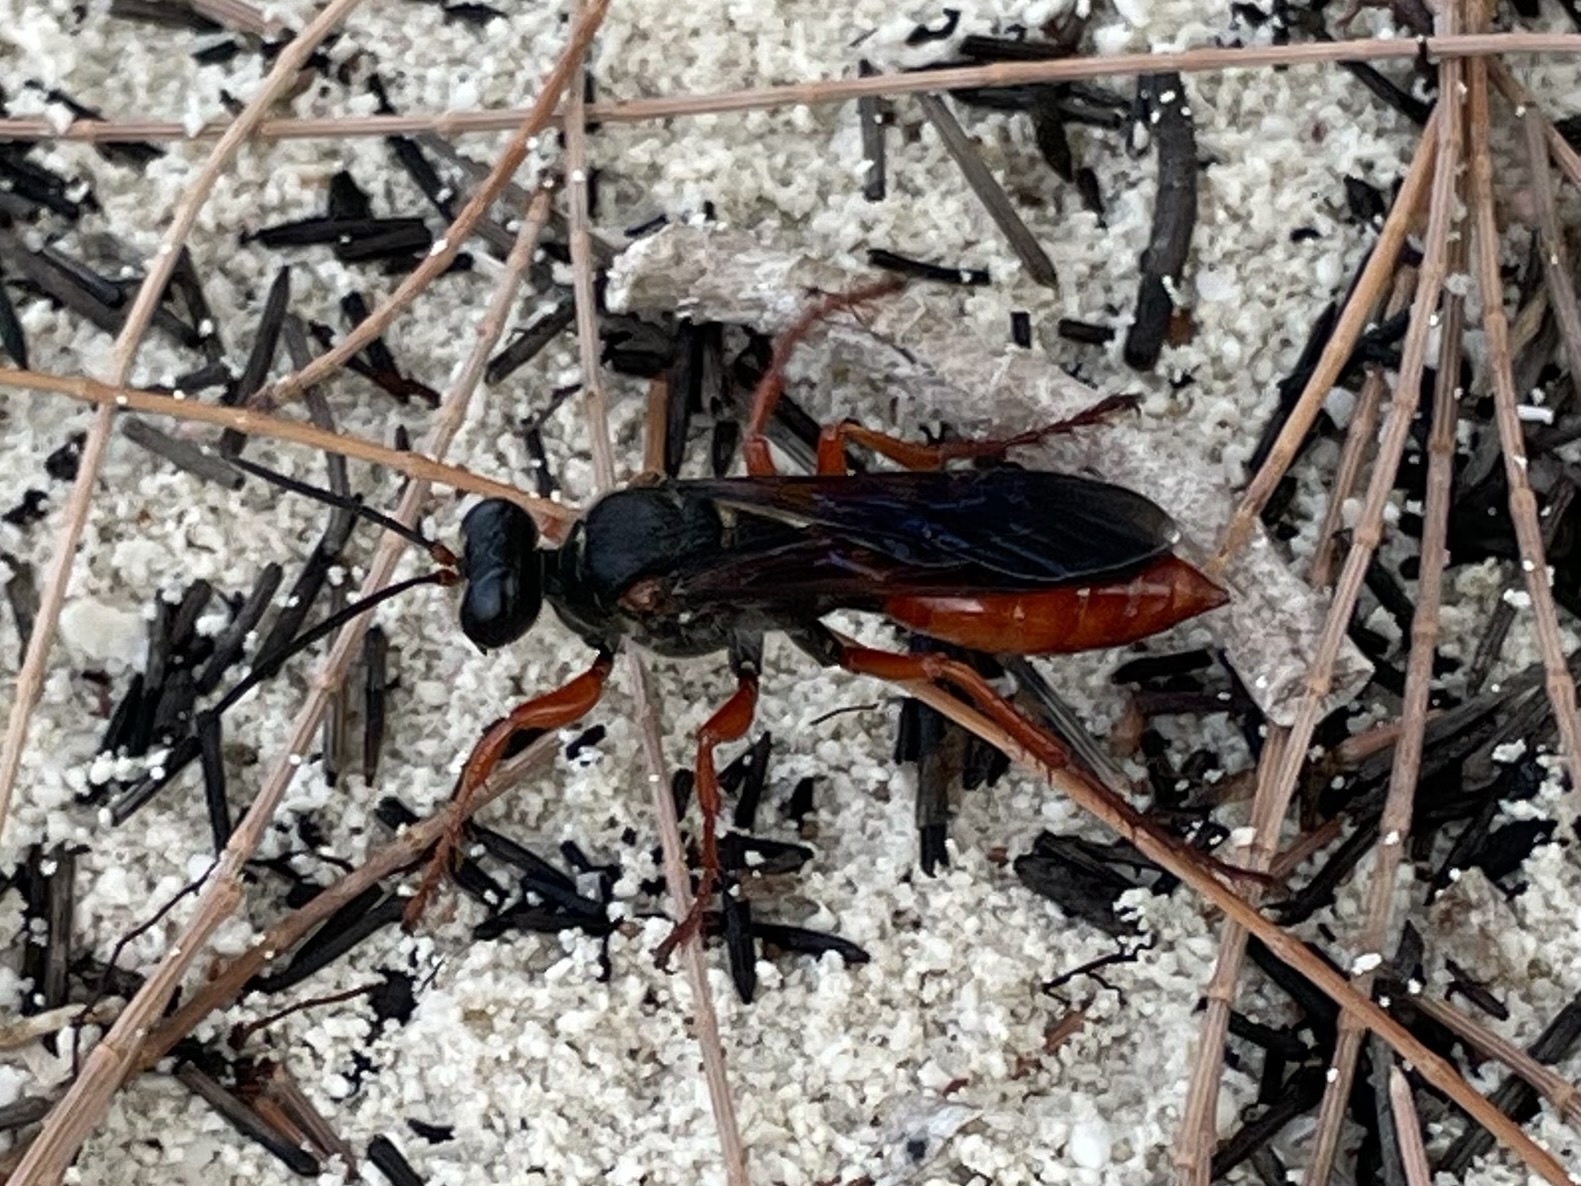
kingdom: Animalia
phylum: Arthropoda
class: Insecta
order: Hymenoptera
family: Sphecidae
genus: Sphex
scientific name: Sphex resinipes
